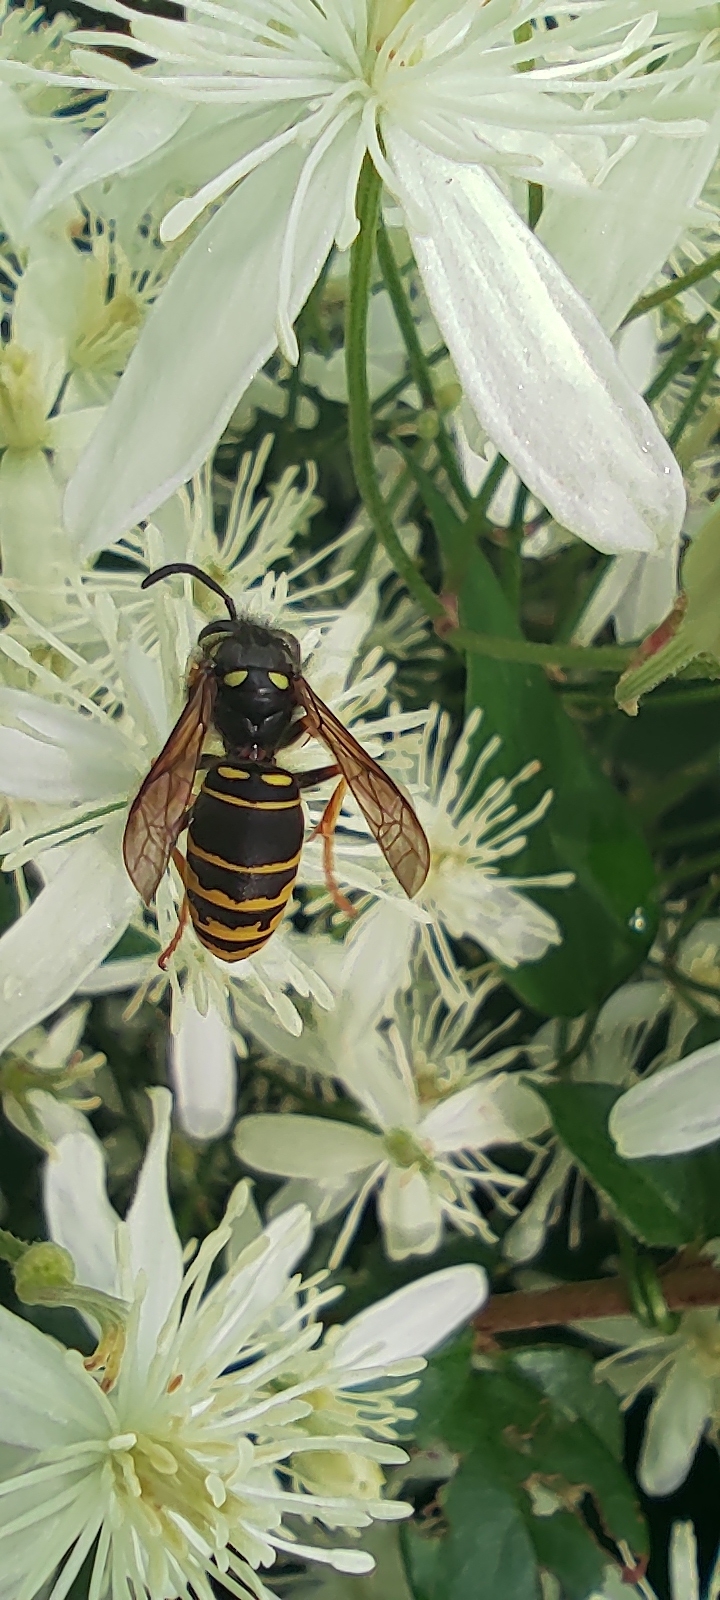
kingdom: Animalia
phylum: Arthropoda
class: Insecta
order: Hymenoptera
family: Vespidae
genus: Vespula
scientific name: Vespula vidua
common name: Widow yellowjacket
